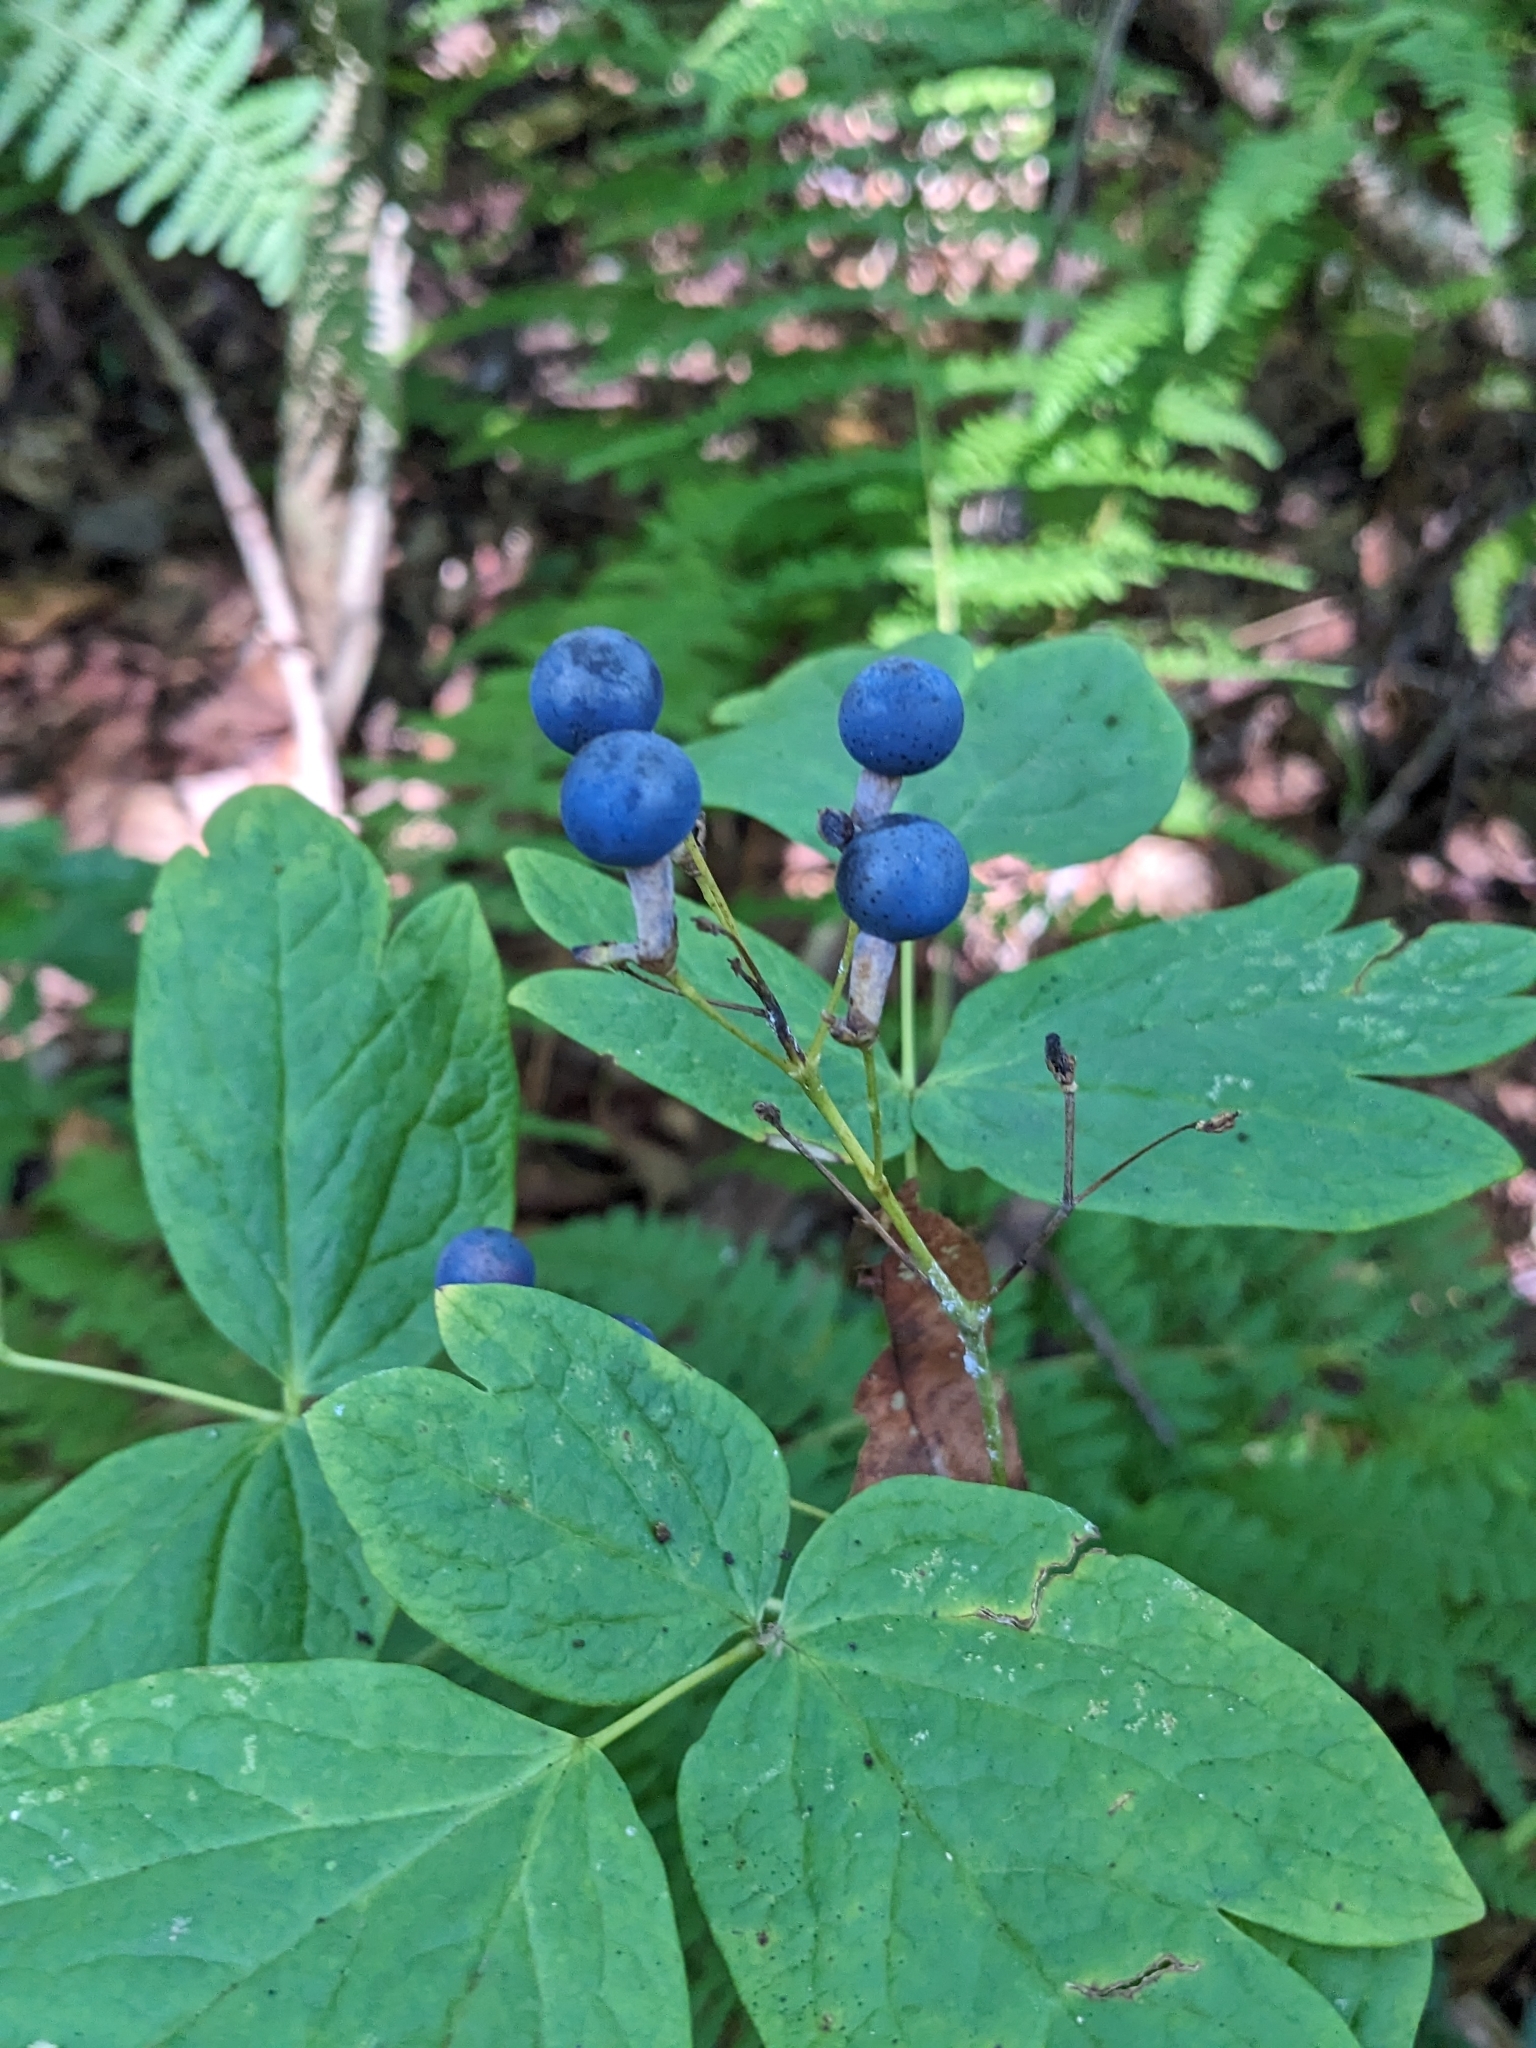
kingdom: Plantae
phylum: Tracheophyta
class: Magnoliopsida
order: Ranunculales
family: Berberidaceae
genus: Caulophyllum
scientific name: Caulophyllum thalictroides
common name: Blue cohosh
